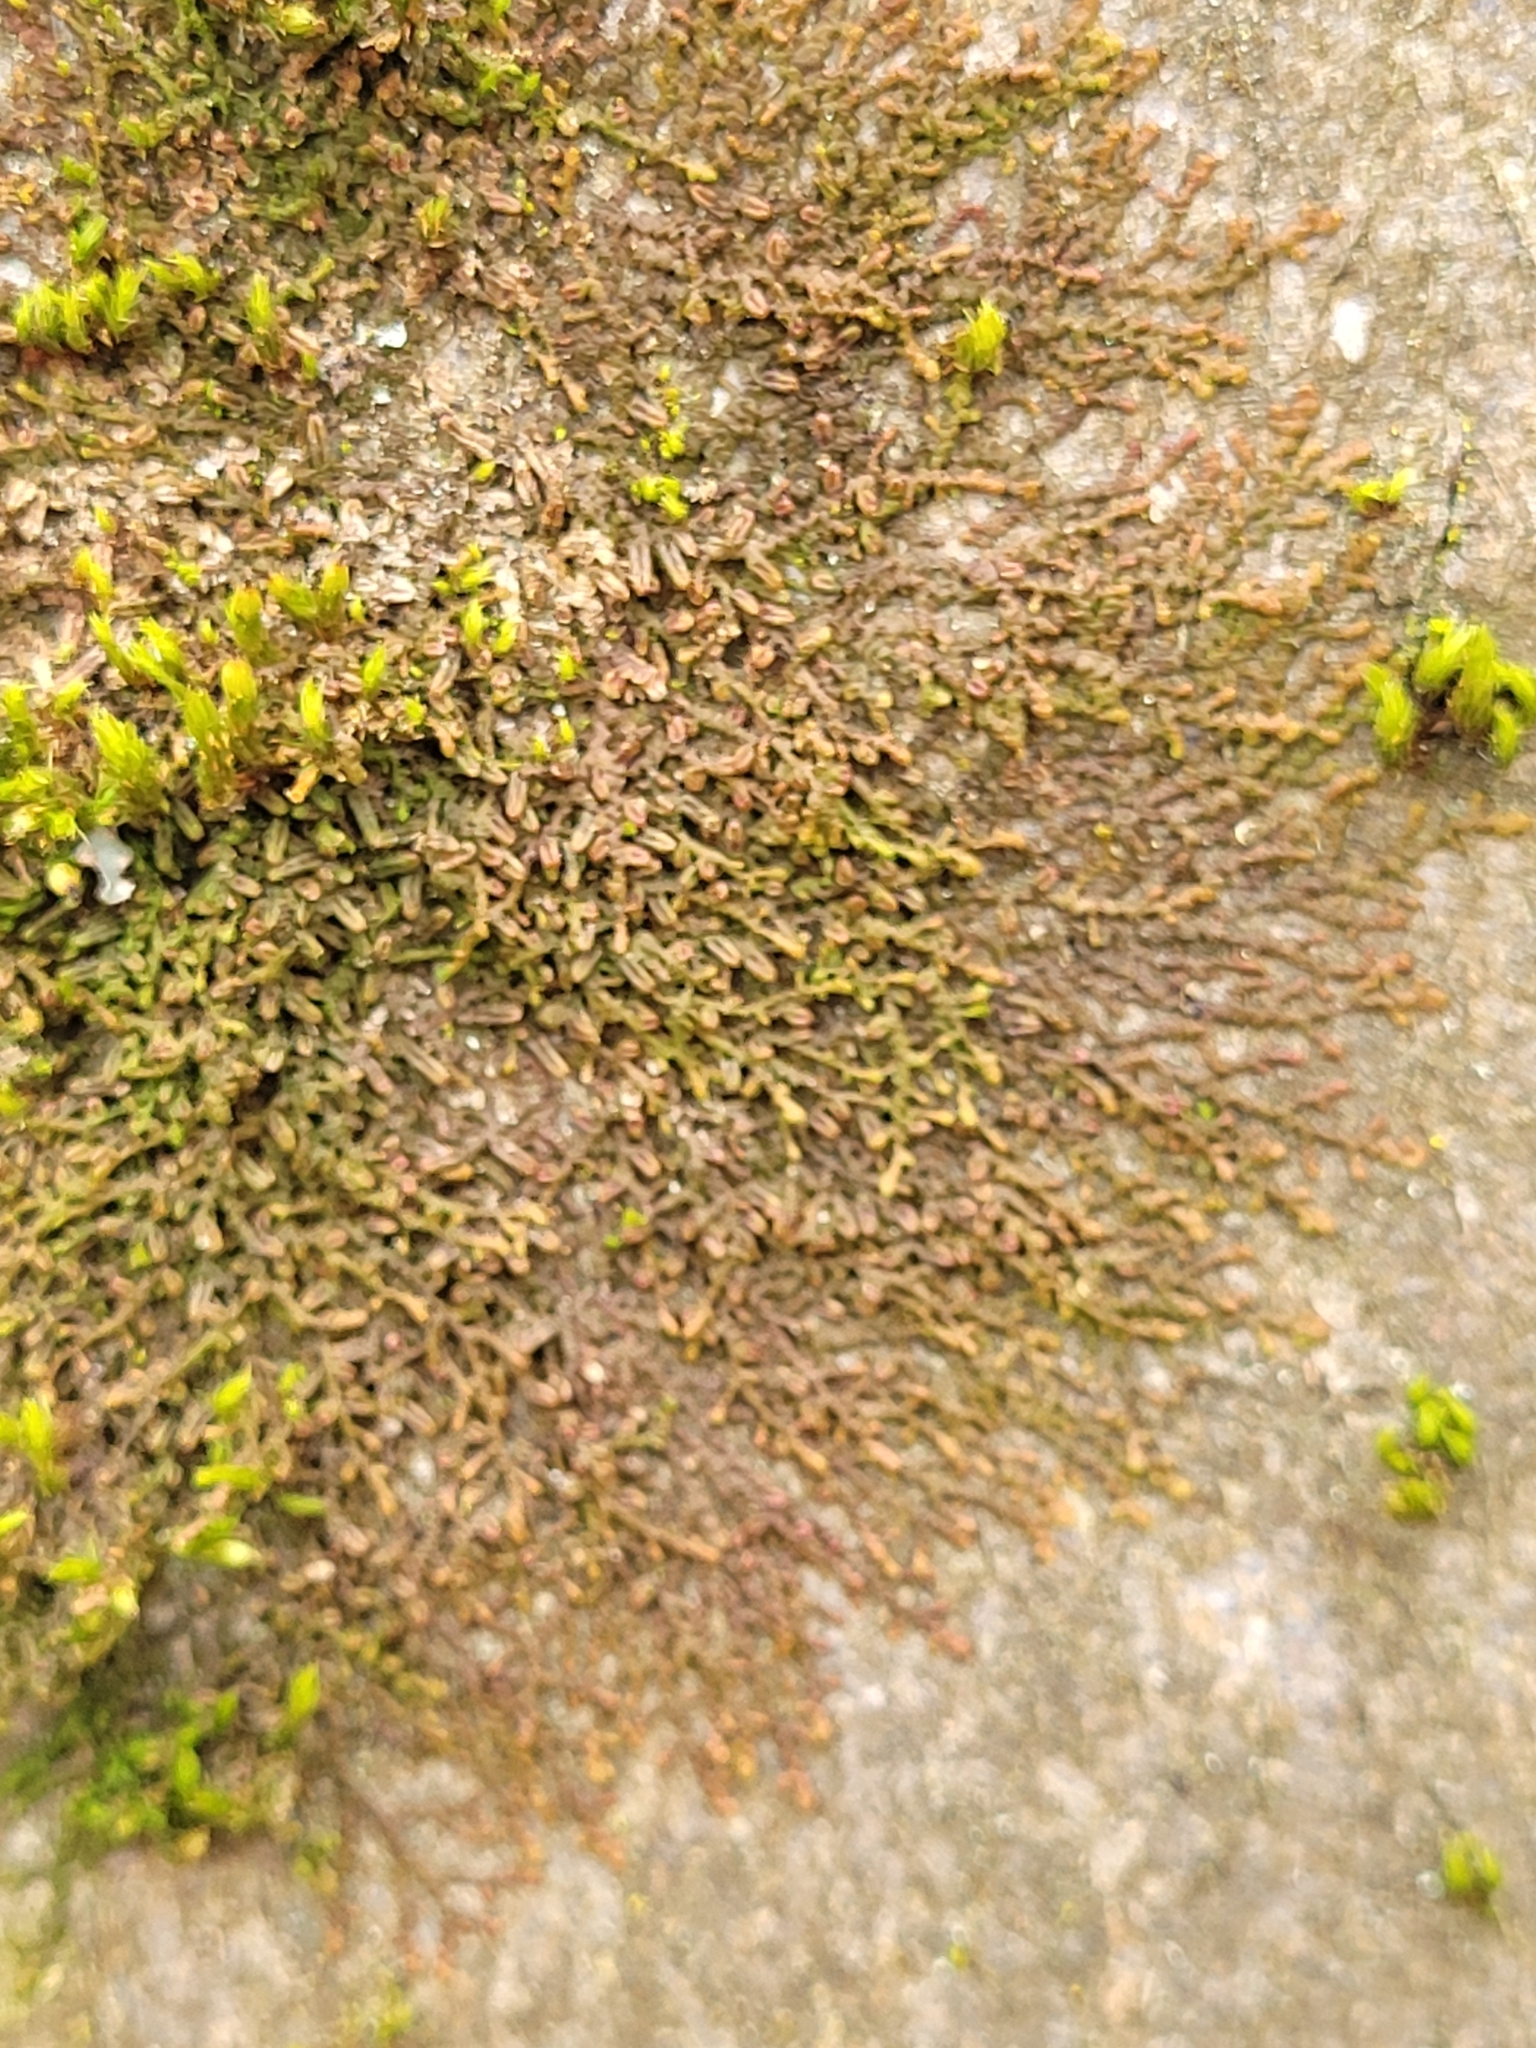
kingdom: Plantae
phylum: Marchantiophyta
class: Jungermanniopsida
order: Porellales
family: Frullaniaceae
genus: Frullania
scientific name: Frullania dilatata
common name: Dilated scalewort
